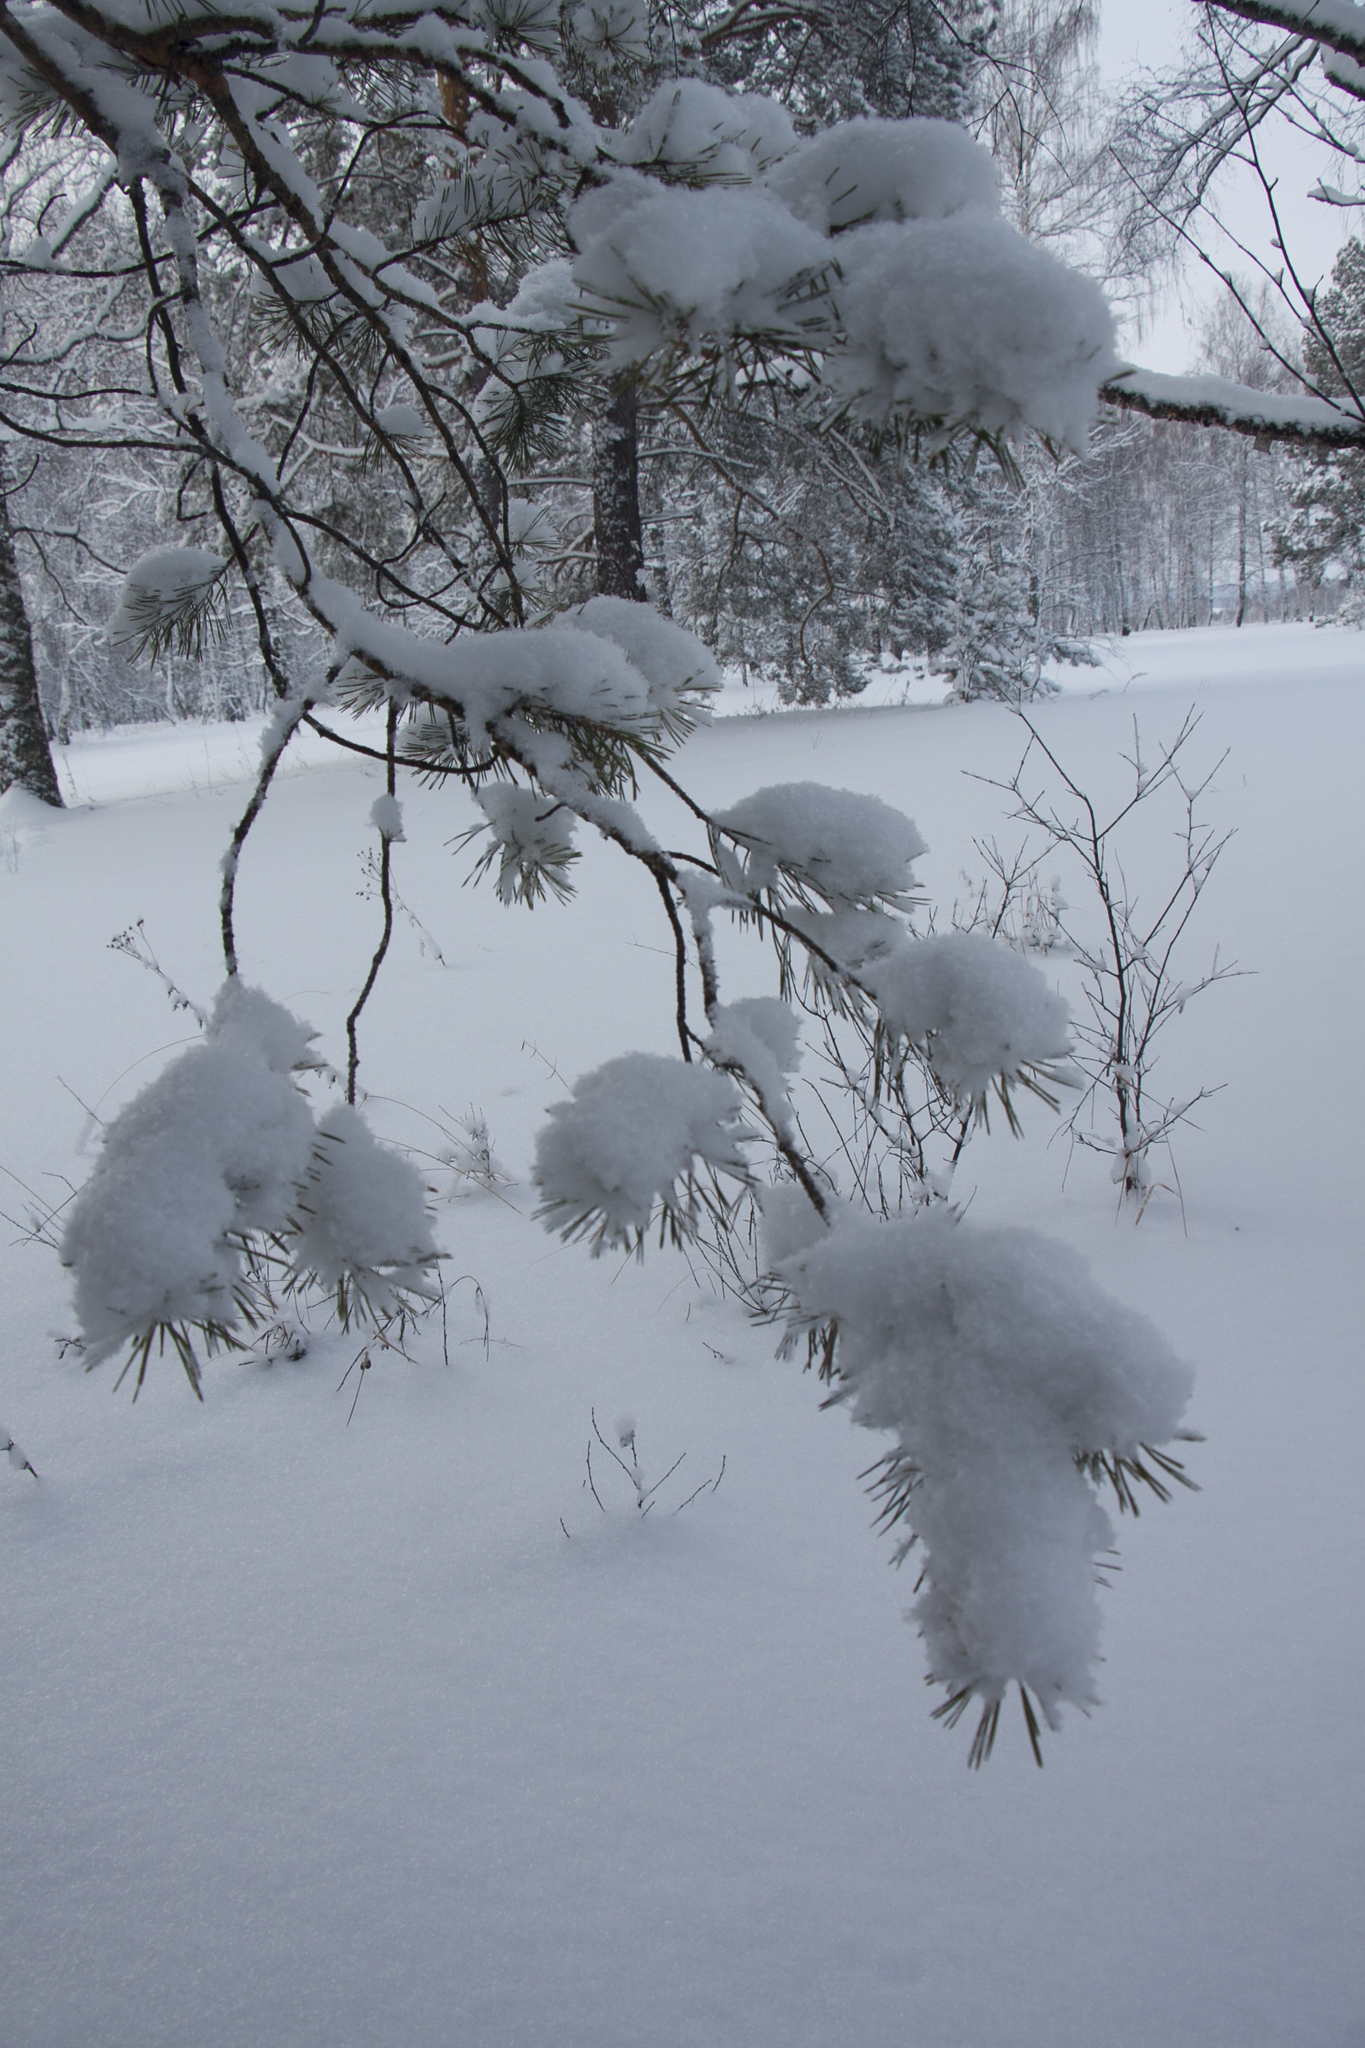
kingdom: Plantae
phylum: Tracheophyta
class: Pinopsida
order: Pinales
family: Pinaceae
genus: Pinus
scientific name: Pinus sylvestris
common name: Scots pine
